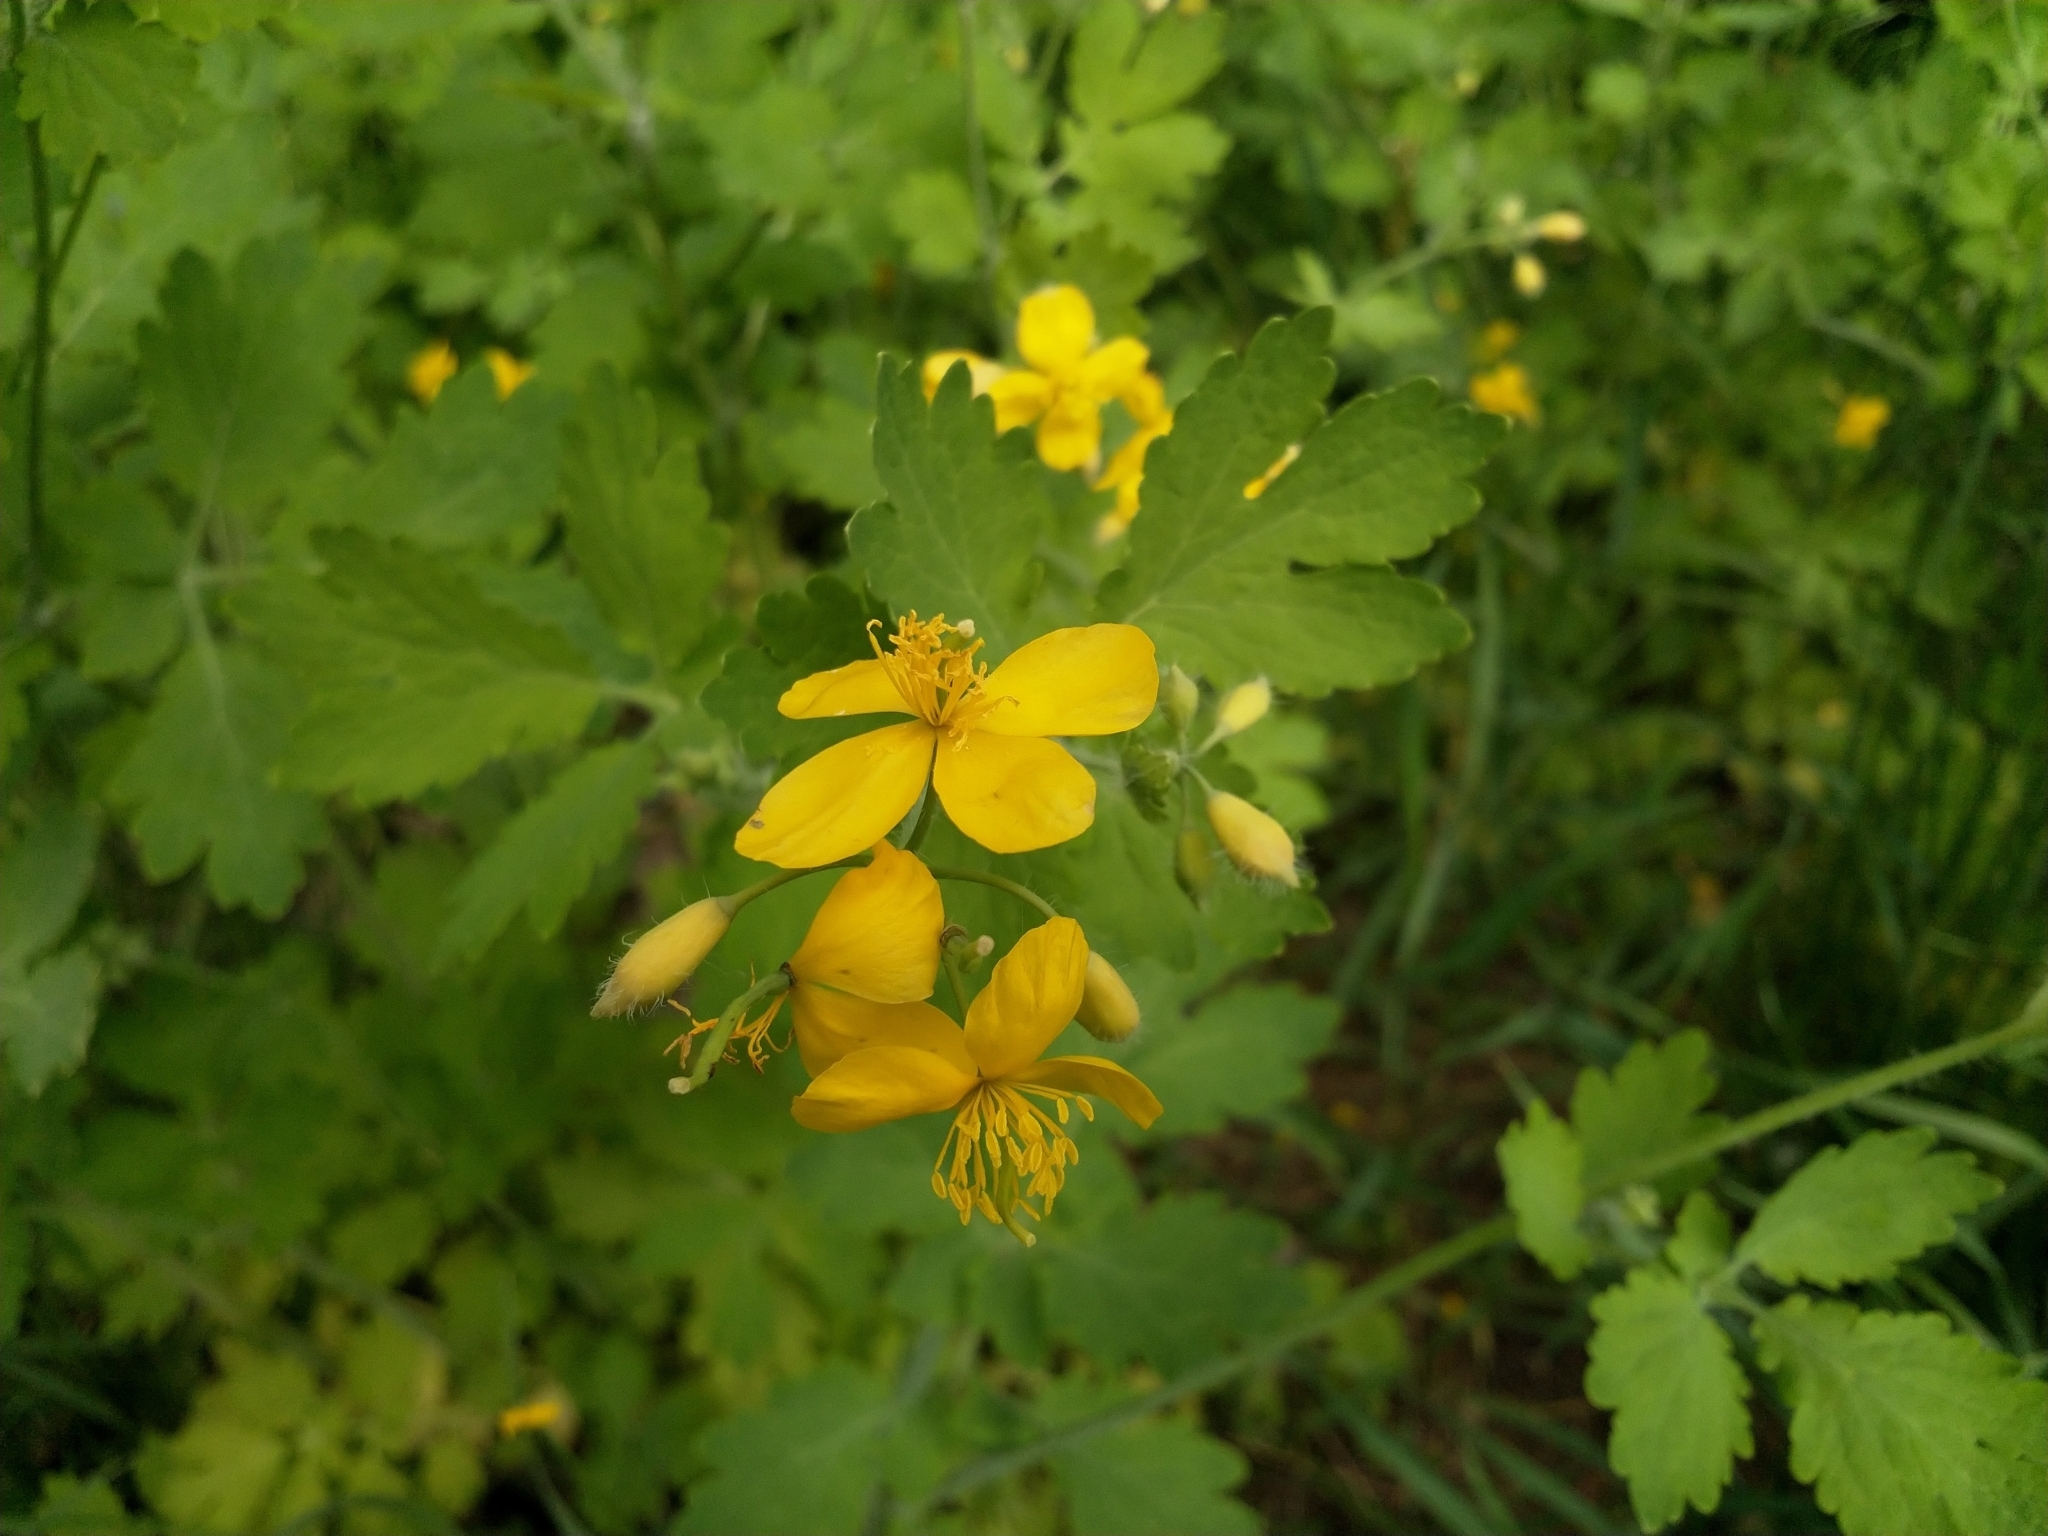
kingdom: Plantae
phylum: Tracheophyta
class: Magnoliopsida
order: Ranunculales
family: Papaveraceae
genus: Chelidonium
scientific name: Chelidonium majus
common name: Greater celandine
